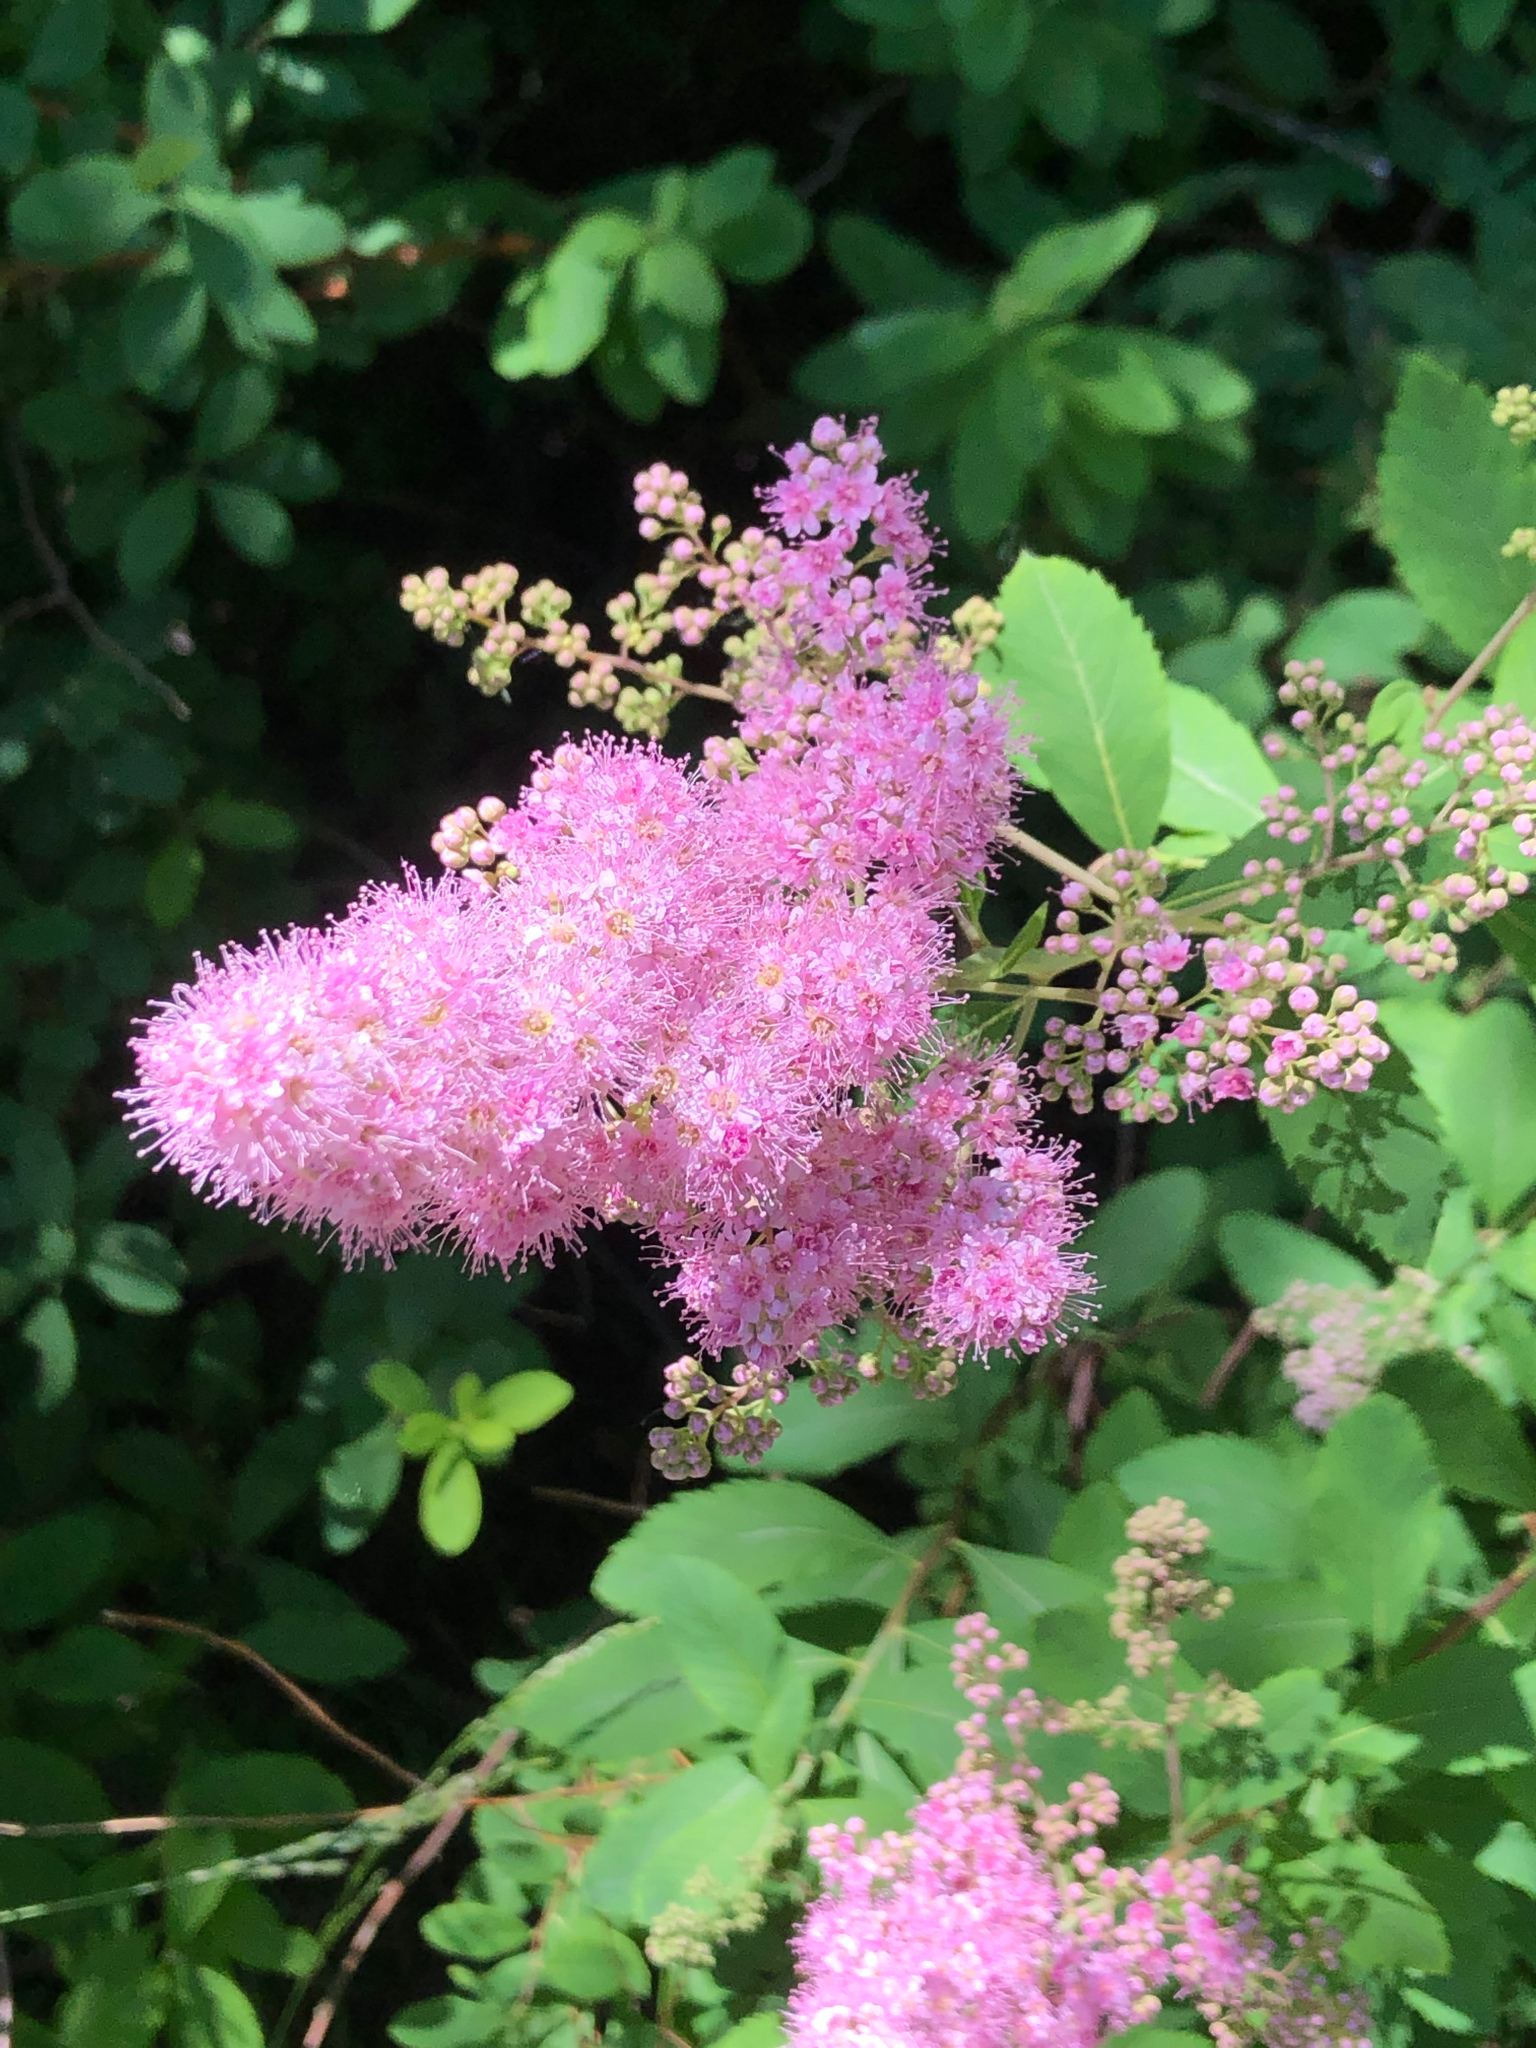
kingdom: Plantae
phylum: Tracheophyta
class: Magnoliopsida
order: Rosales
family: Rosaceae
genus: Spiraea
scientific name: Spiraea douglasii
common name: Steeplebush
